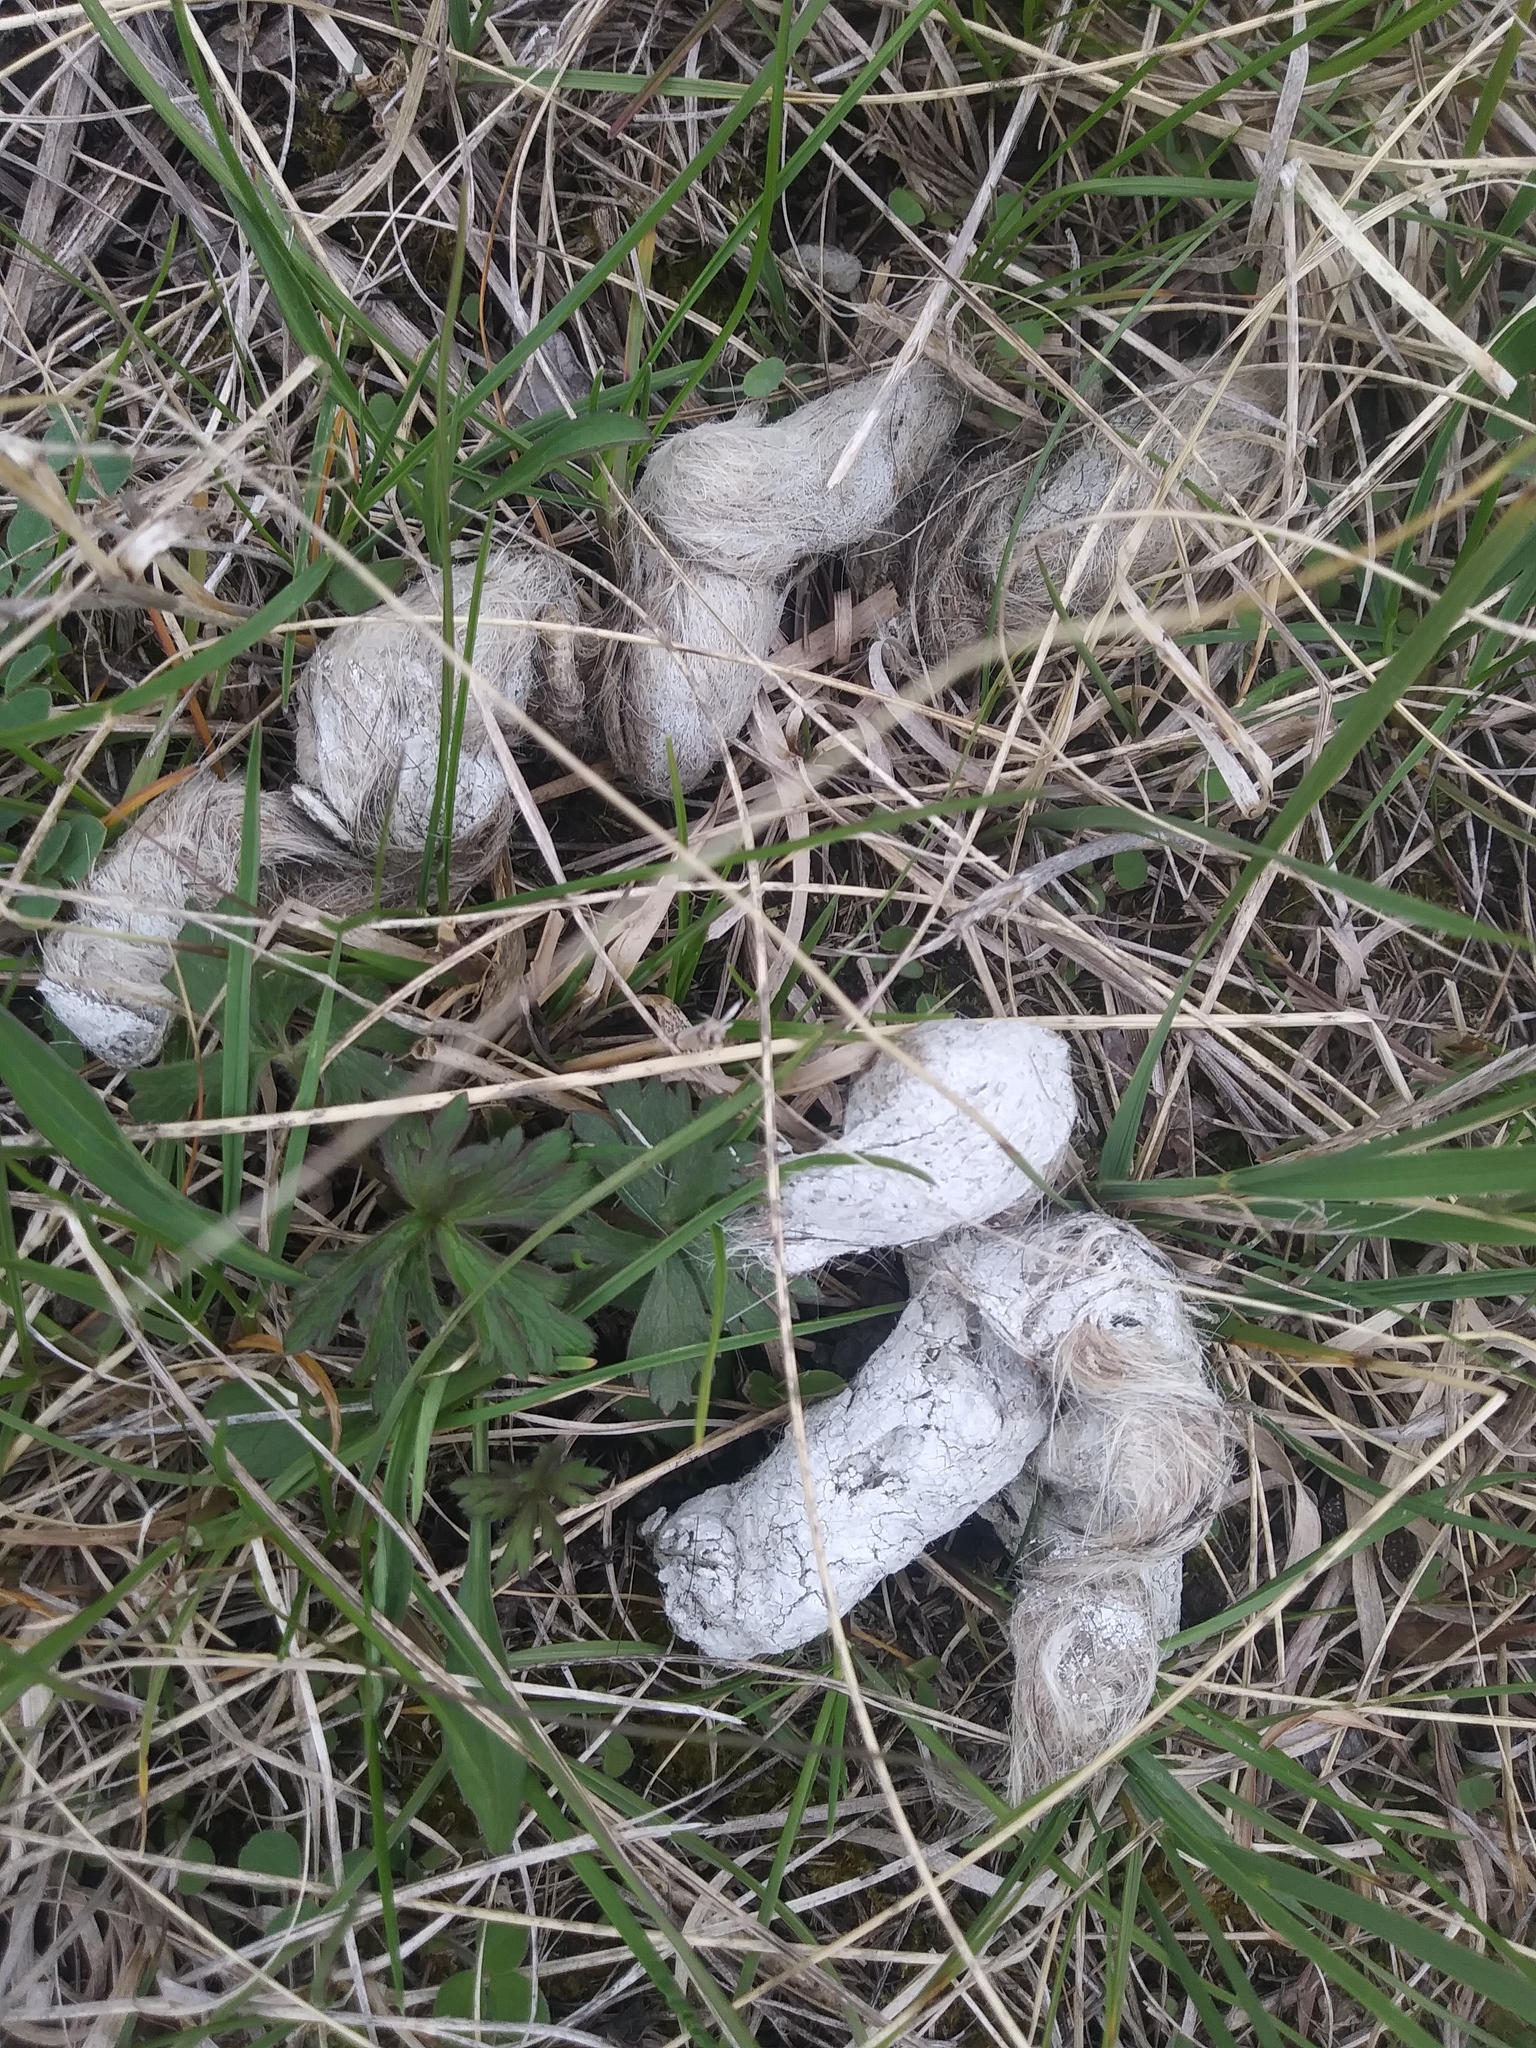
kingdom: Animalia
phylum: Chordata
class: Mammalia
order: Carnivora
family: Canidae
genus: Canis
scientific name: Canis latrans
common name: Coyote
